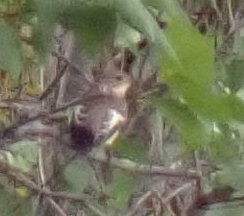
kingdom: Animalia
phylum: Chordata
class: Aves
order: Passeriformes
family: Muscicapidae
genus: Ficedula
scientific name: Ficedula hypoleuca
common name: European pied flycatcher
